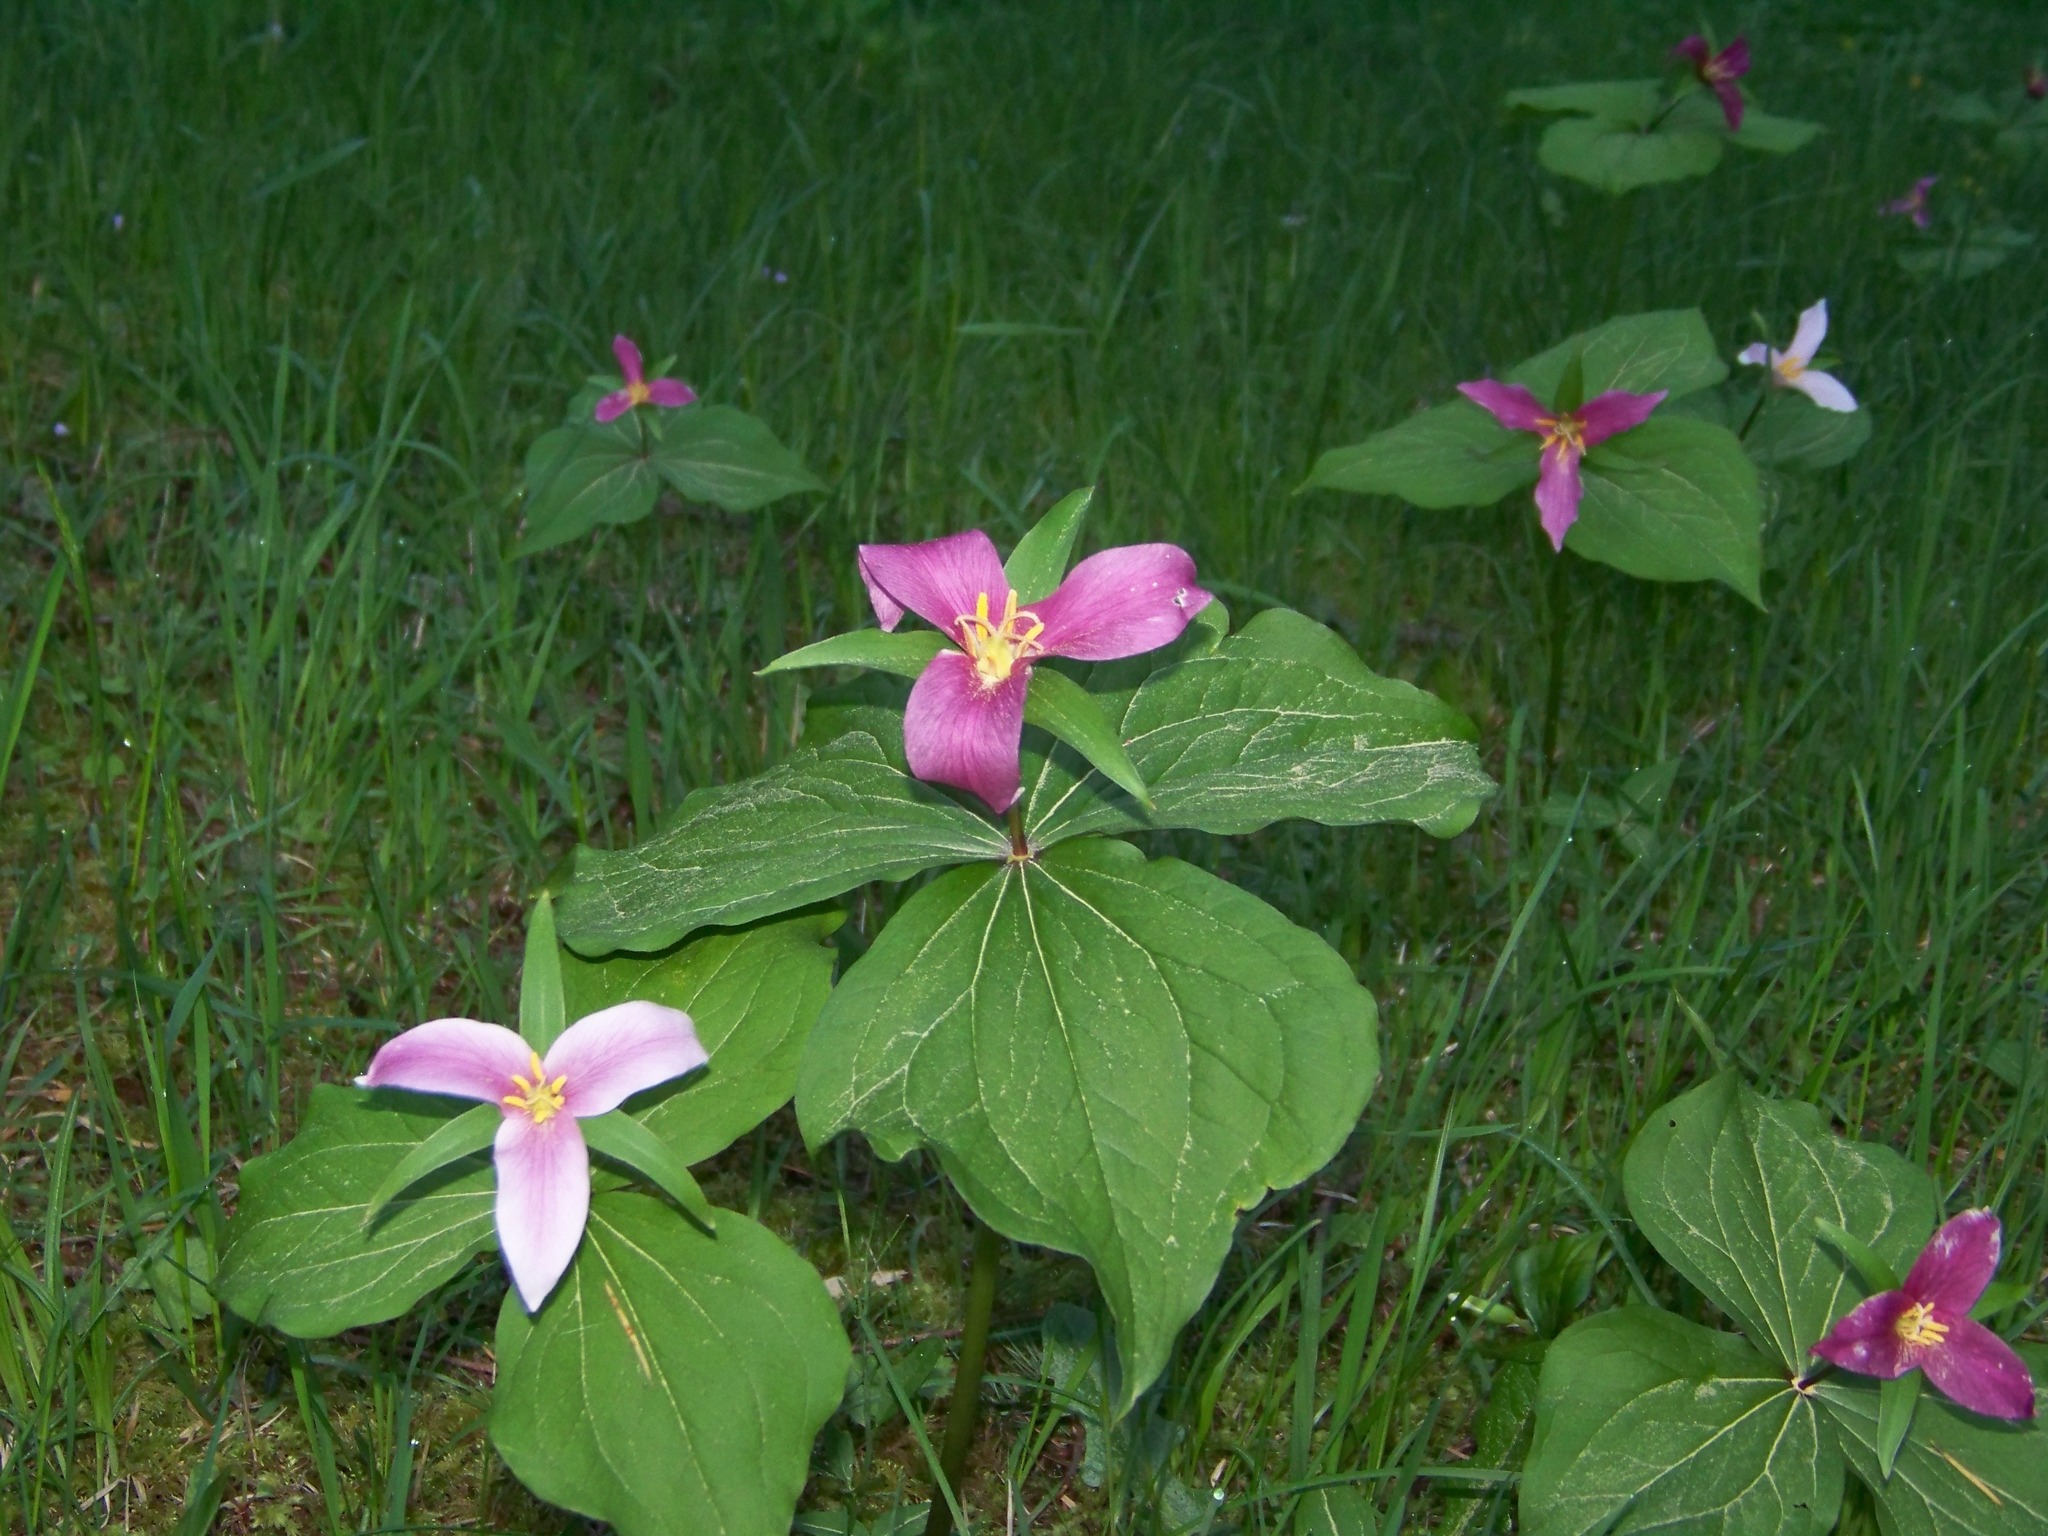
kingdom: Plantae
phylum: Tracheophyta
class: Liliopsida
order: Liliales
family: Melanthiaceae
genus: Trillium
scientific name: Trillium ovatum
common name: Pacific trillium
